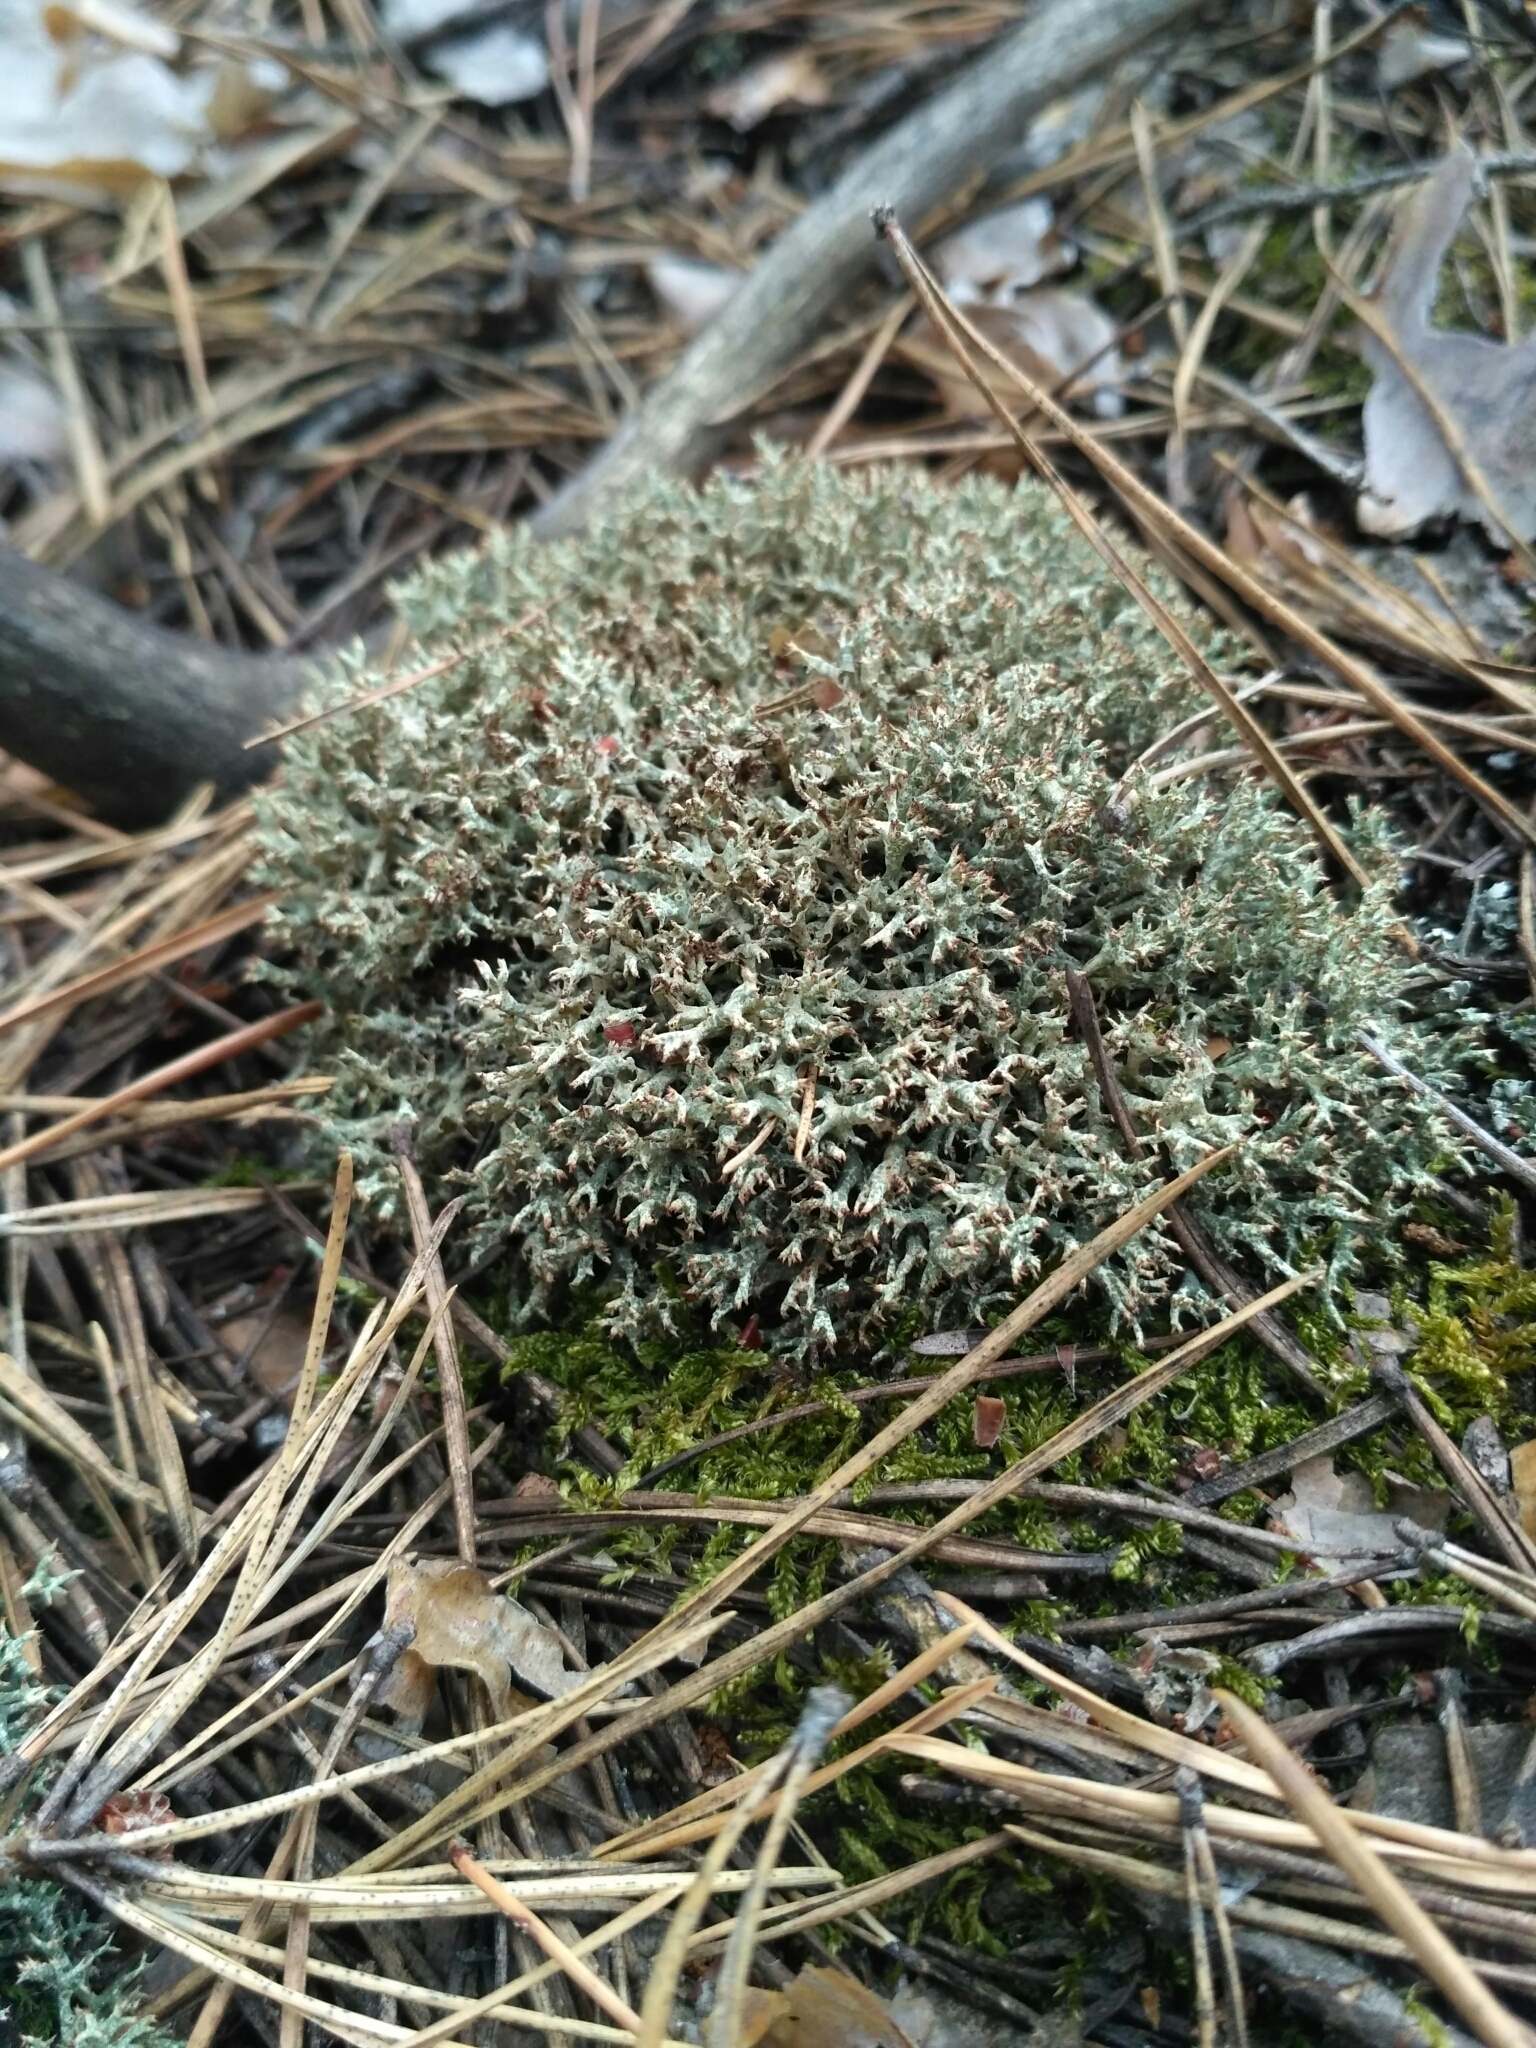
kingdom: Fungi
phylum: Ascomycota
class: Lecanoromycetes
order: Lecanorales
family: Cladoniaceae
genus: Cladonia
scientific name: Cladonia uncialis
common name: Thorn lichen
